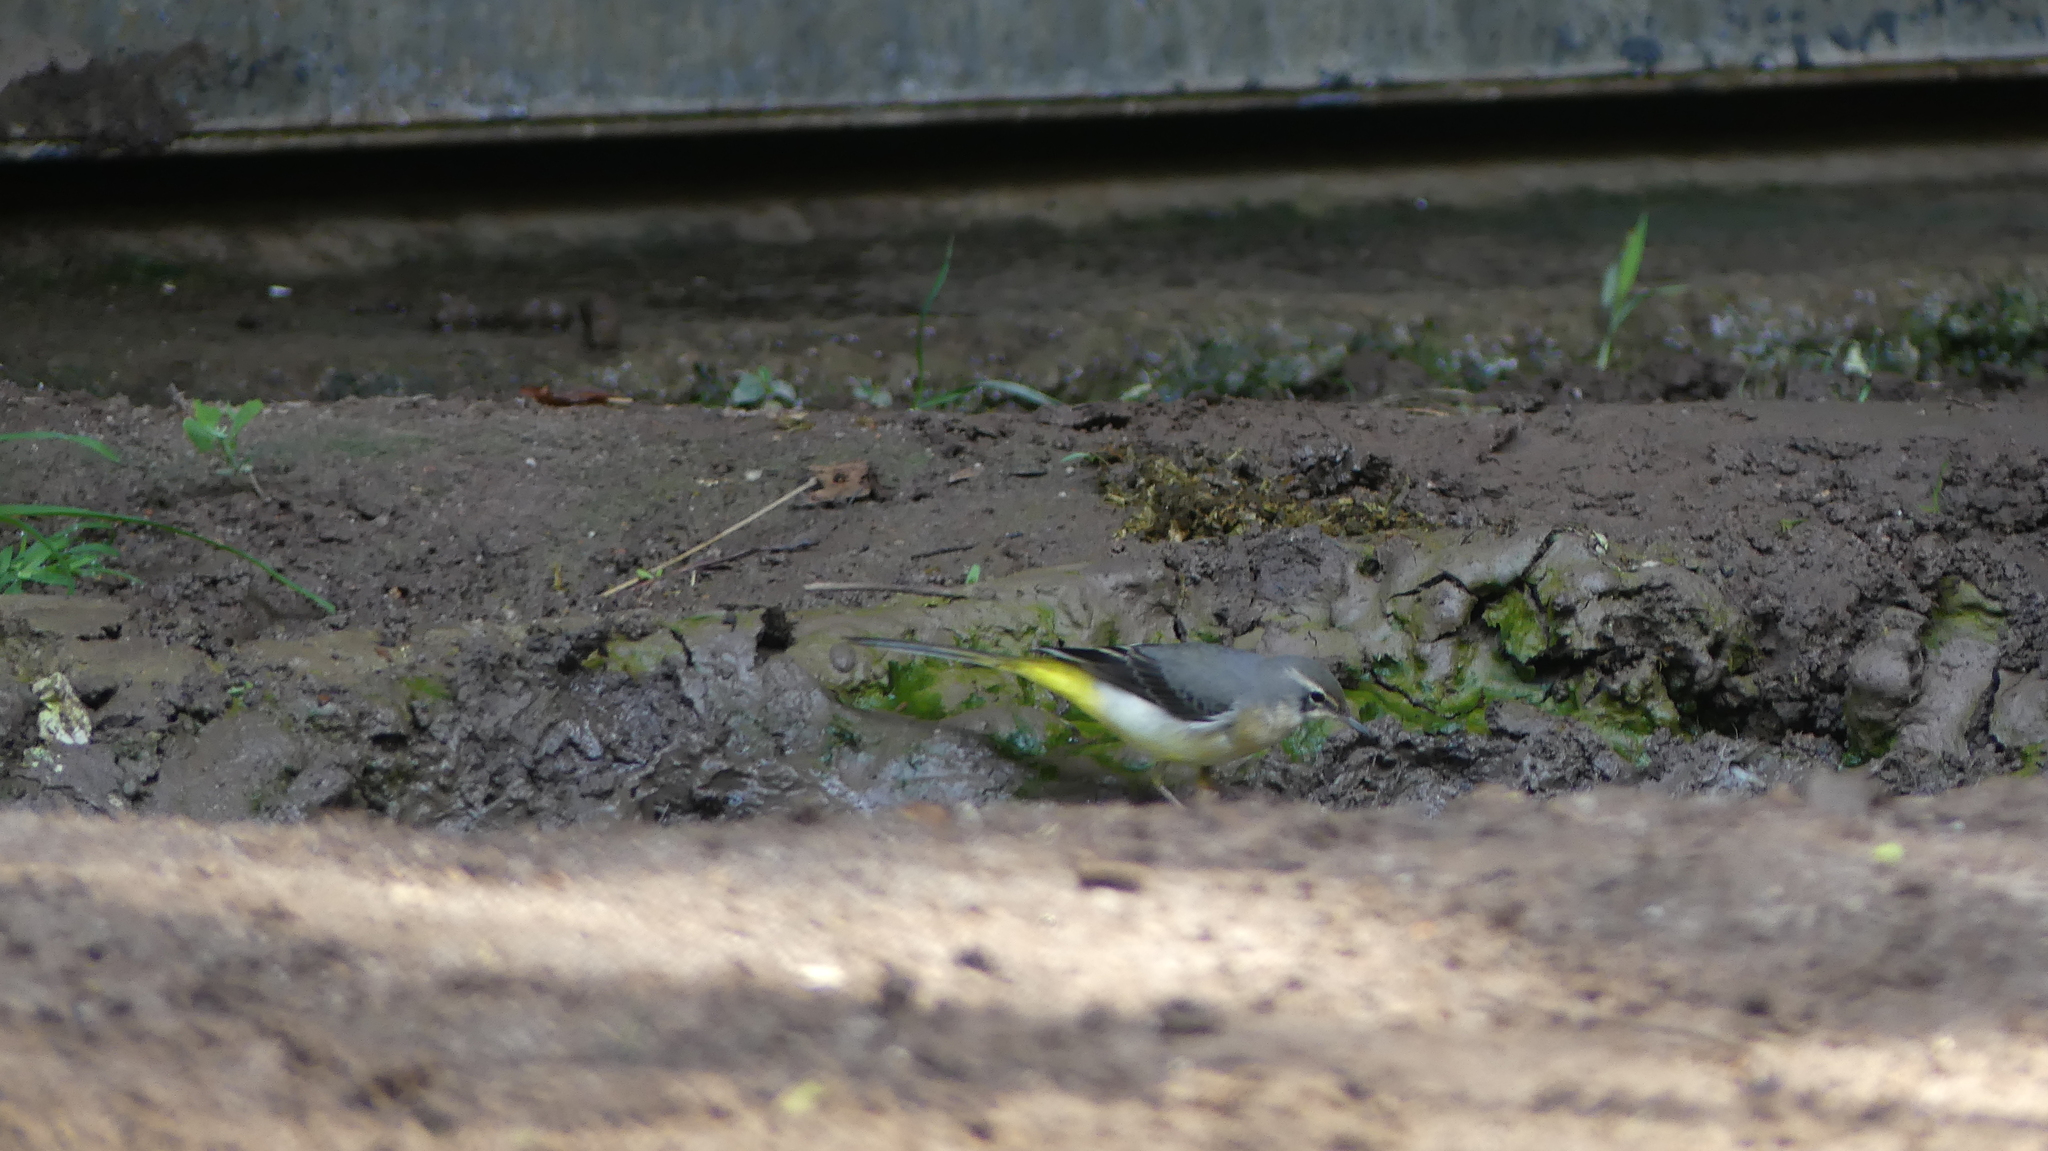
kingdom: Animalia
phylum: Chordata
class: Aves
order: Passeriformes
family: Motacillidae
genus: Motacilla
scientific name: Motacilla cinerea
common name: Grey wagtail
